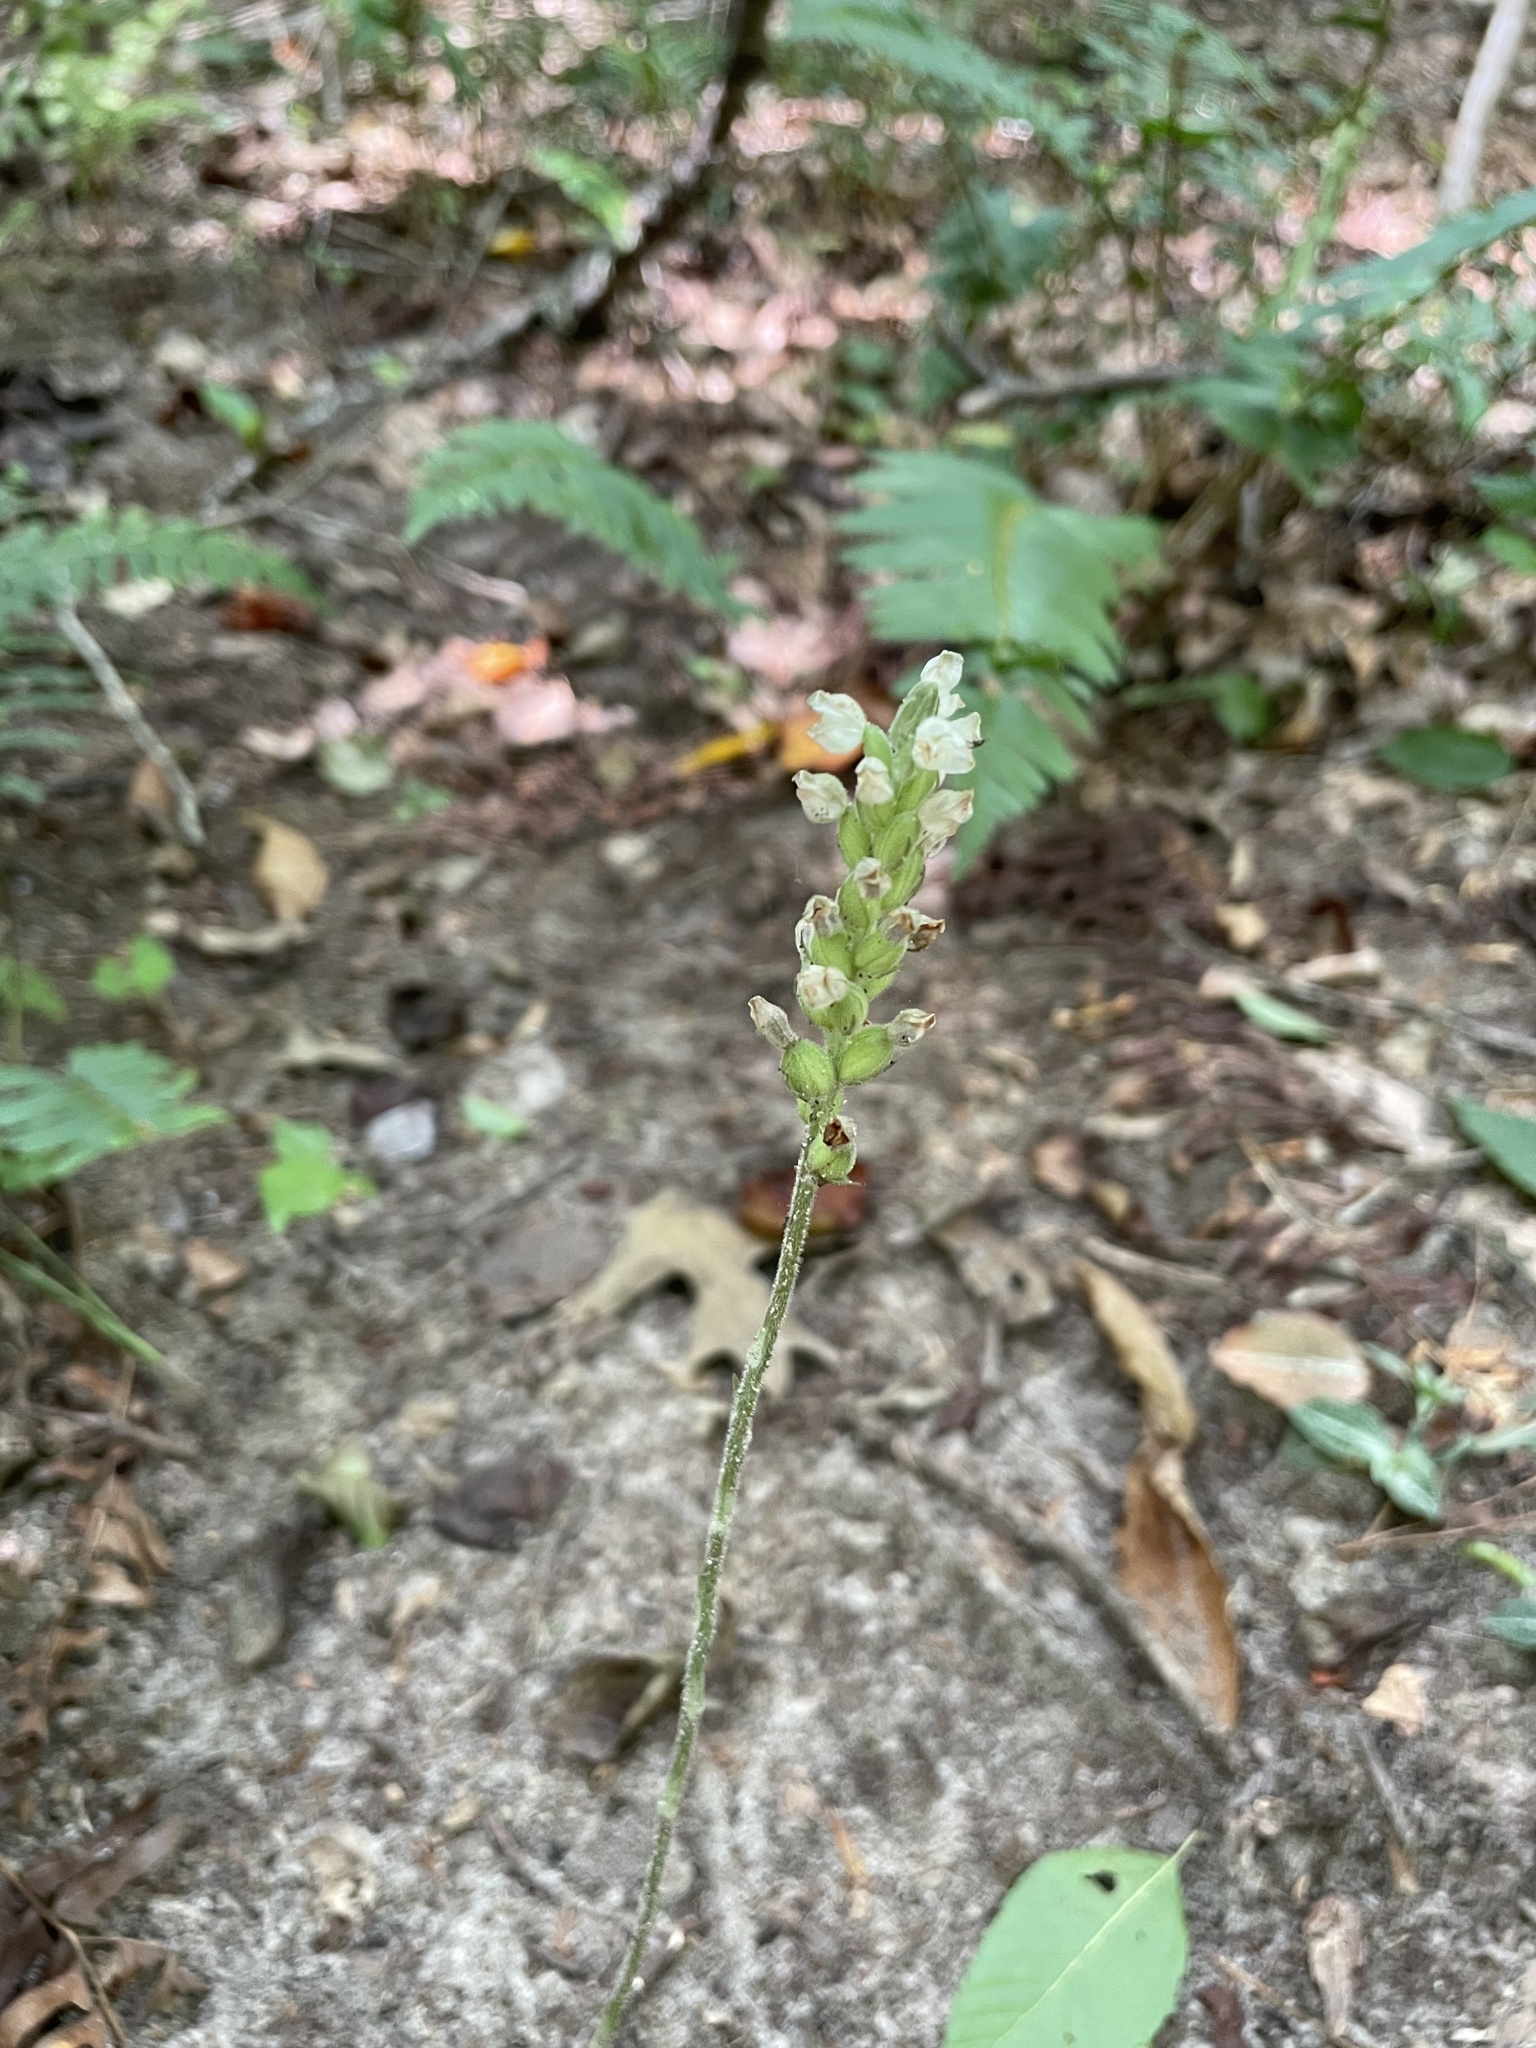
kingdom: Plantae
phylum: Tracheophyta
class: Liliopsida
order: Asparagales
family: Orchidaceae
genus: Goodyera
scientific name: Goodyera pubescens
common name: Downy rattlesnake-plantain
